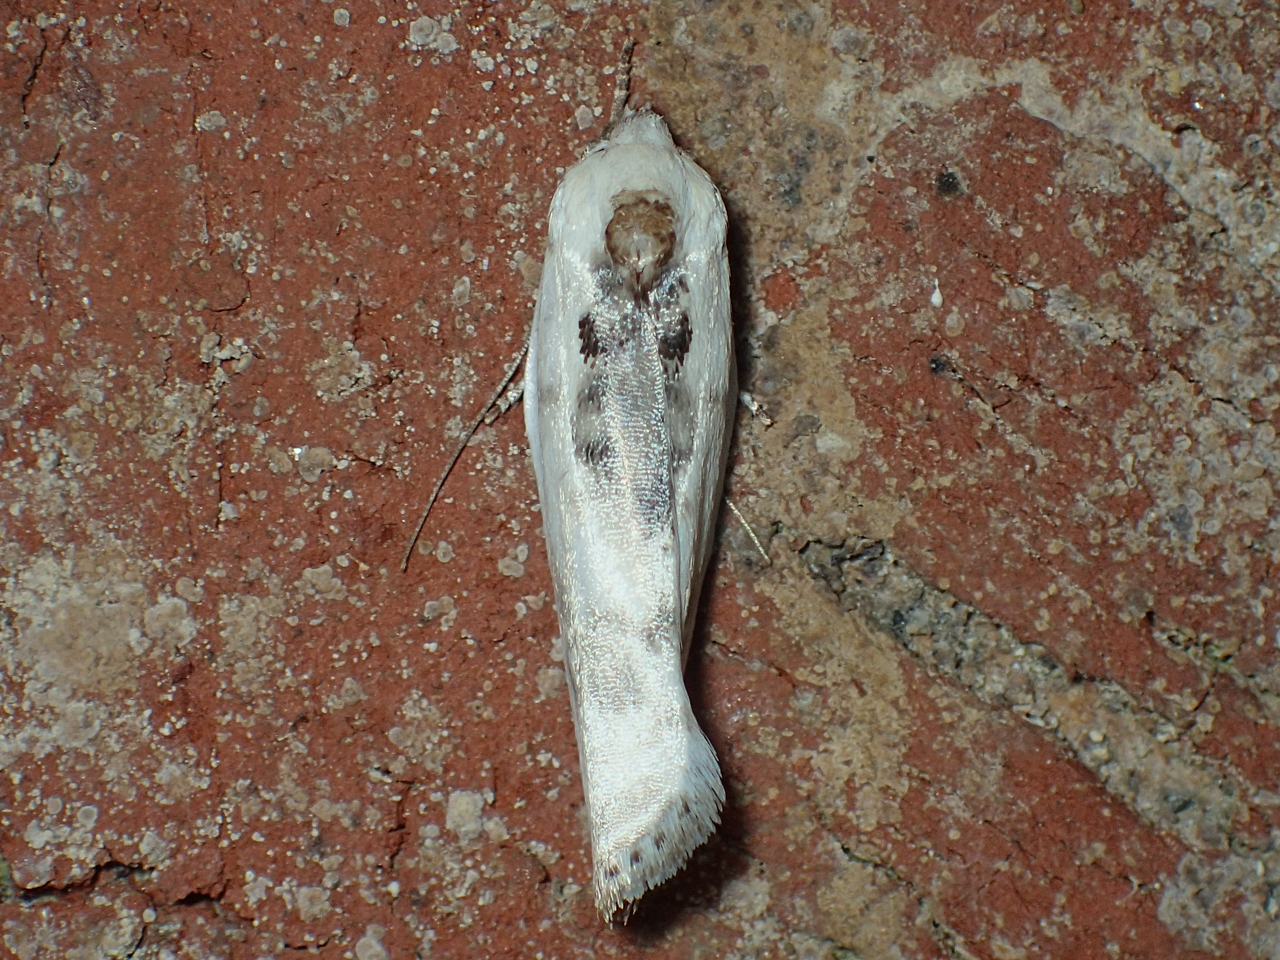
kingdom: Animalia
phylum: Arthropoda
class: Insecta
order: Lepidoptera
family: Depressariidae
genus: Antaeotricha
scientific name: Antaeotricha
